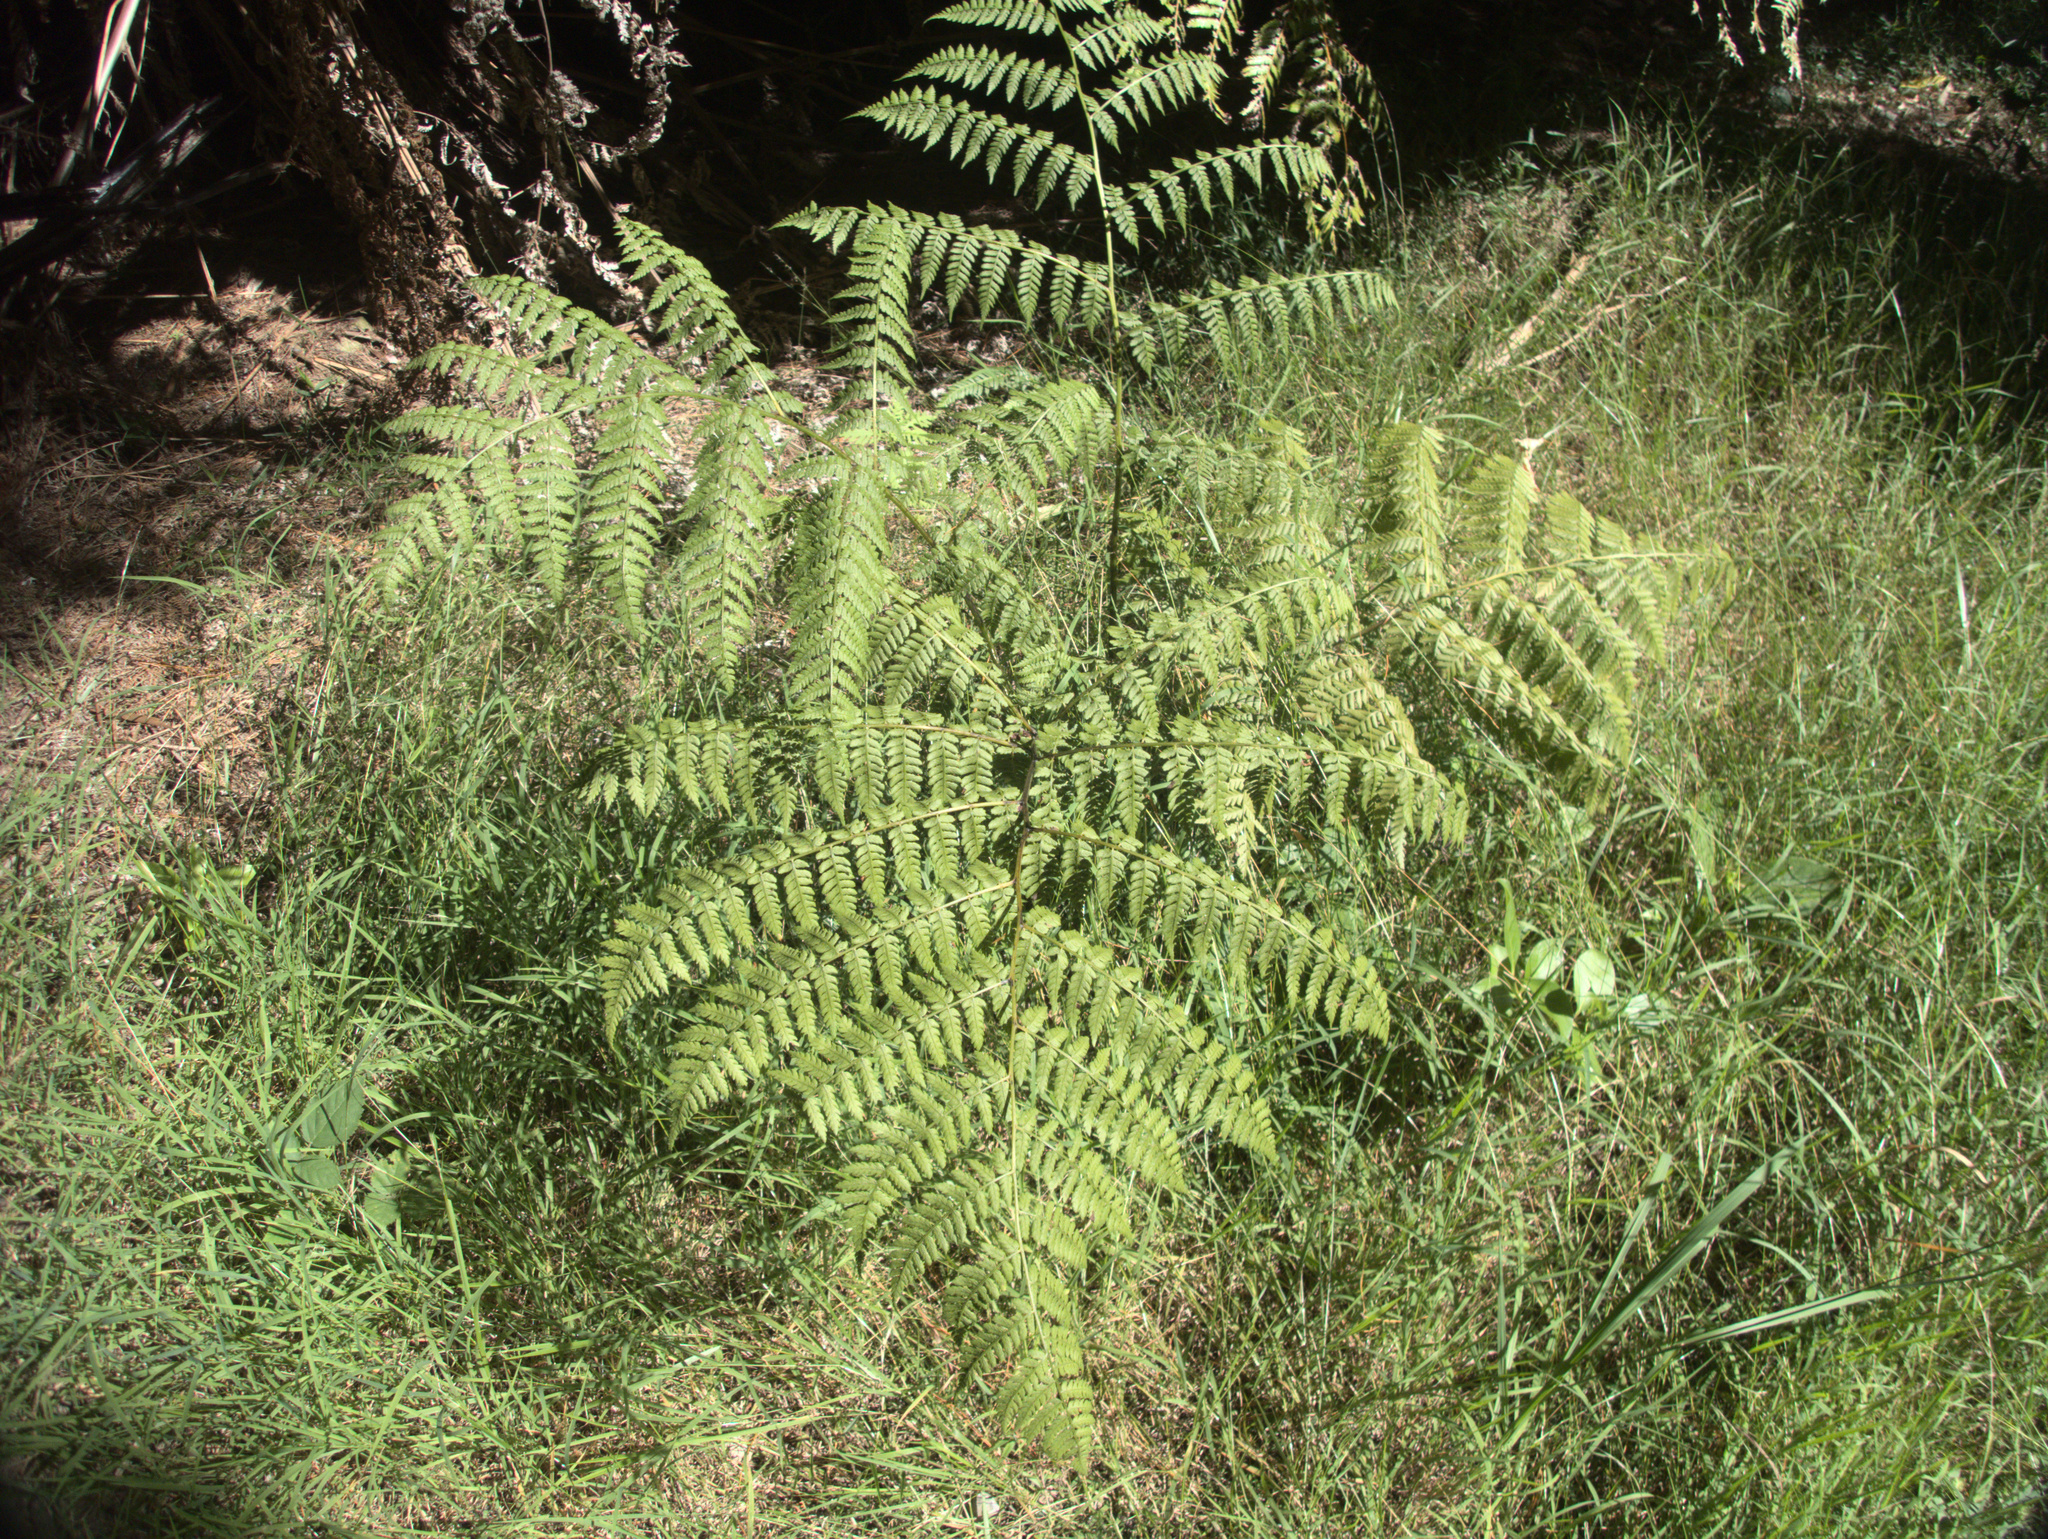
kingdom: Plantae
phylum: Tracheophyta
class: Polypodiopsida
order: Polypodiales
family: Athyriaceae
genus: Diplazium
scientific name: Diplazium australe
